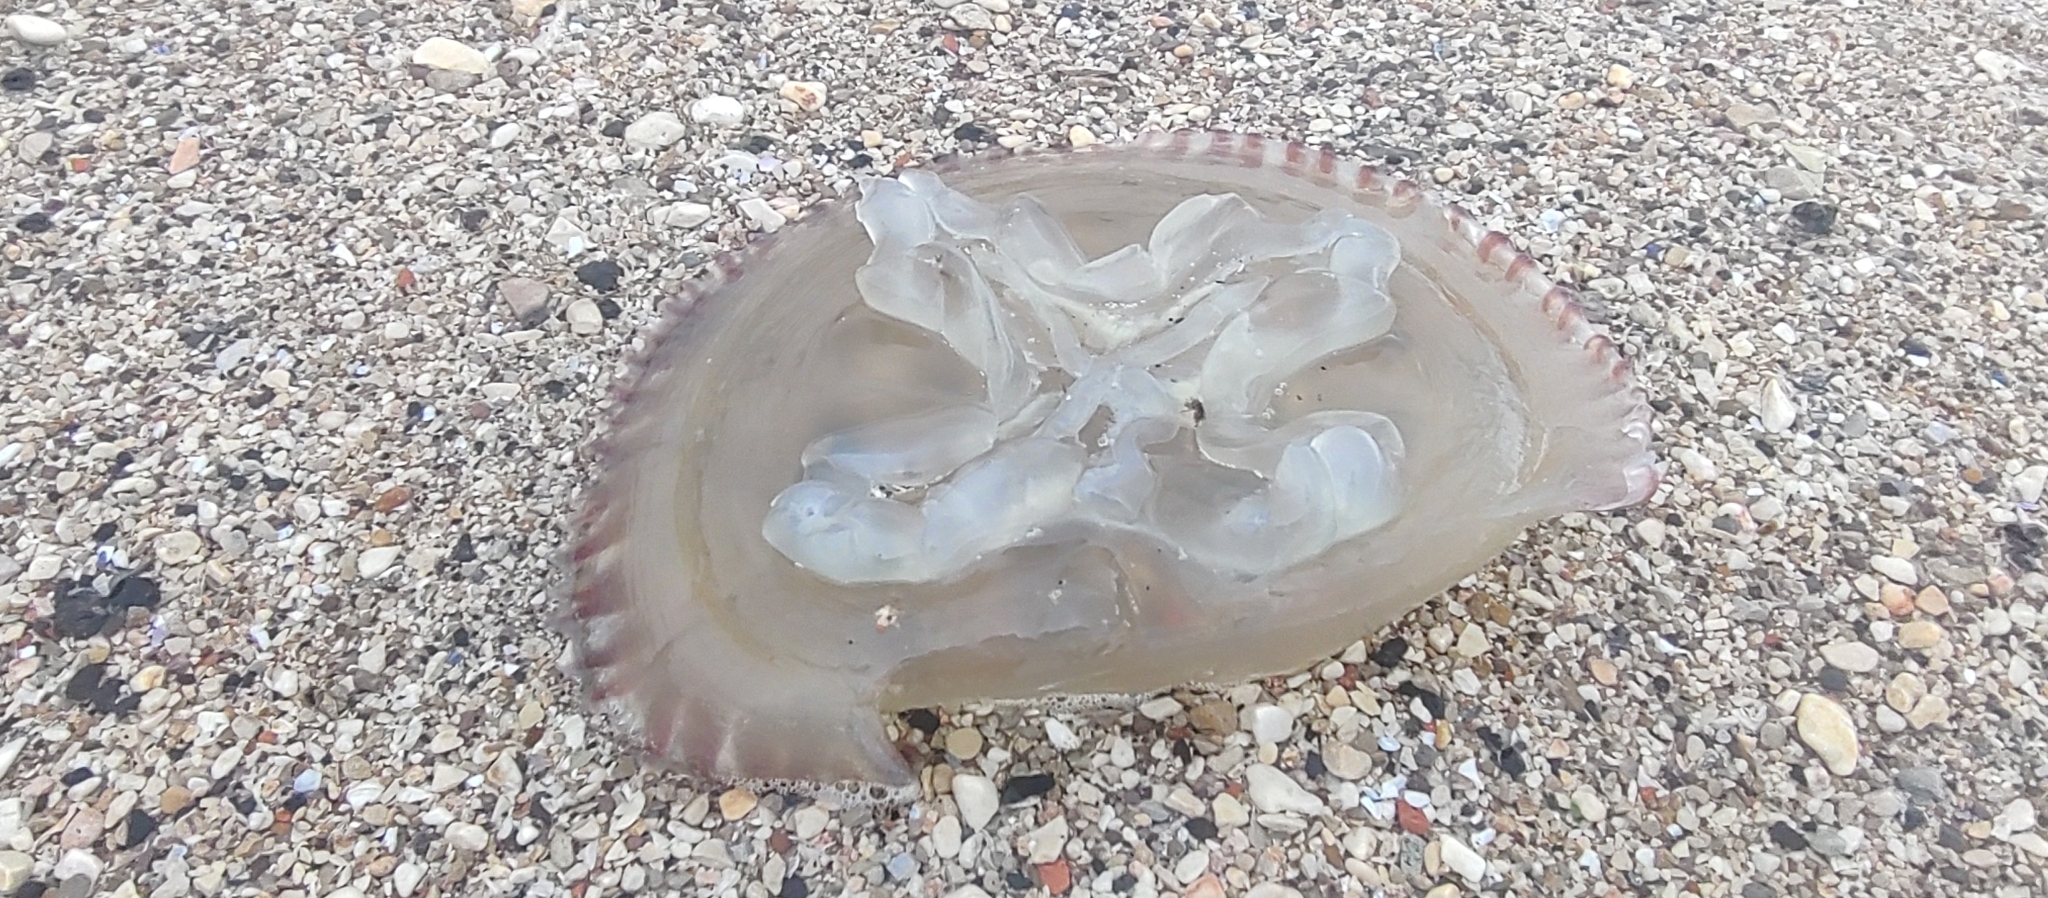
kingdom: Animalia
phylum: Cnidaria
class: Scyphozoa
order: Rhizostomeae
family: Catostylidae
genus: Catostylus
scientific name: Catostylus tagi
